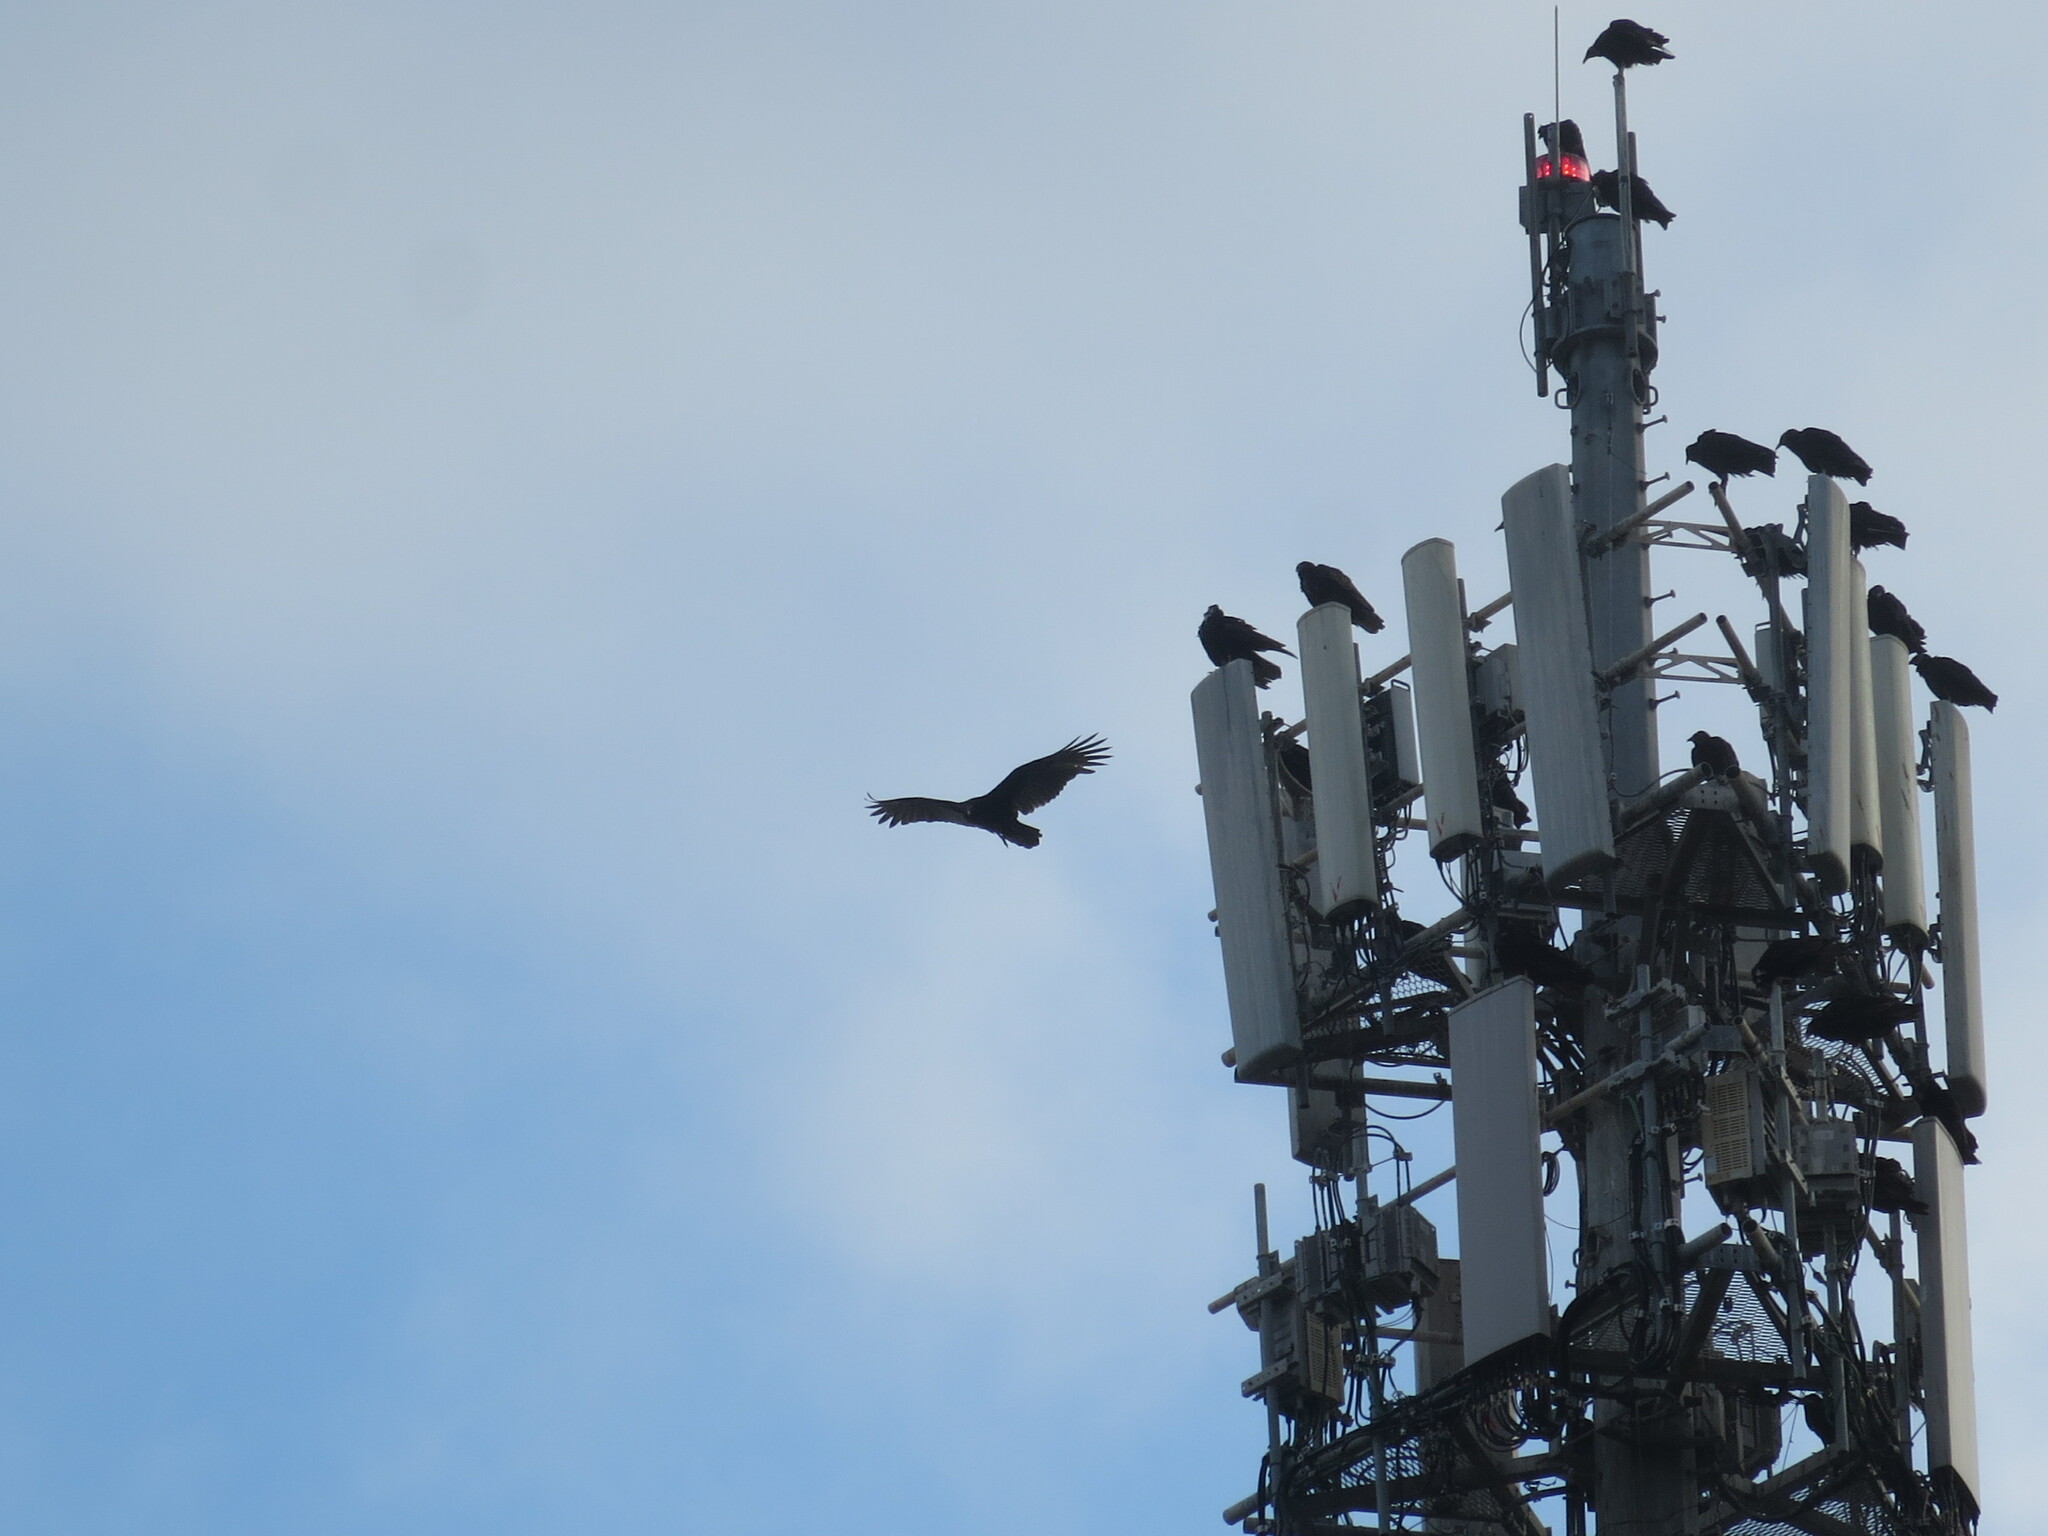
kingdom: Animalia
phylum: Chordata
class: Aves
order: Accipitriformes
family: Cathartidae
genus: Cathartes
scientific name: Cathartes aura
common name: Turkey vulture
